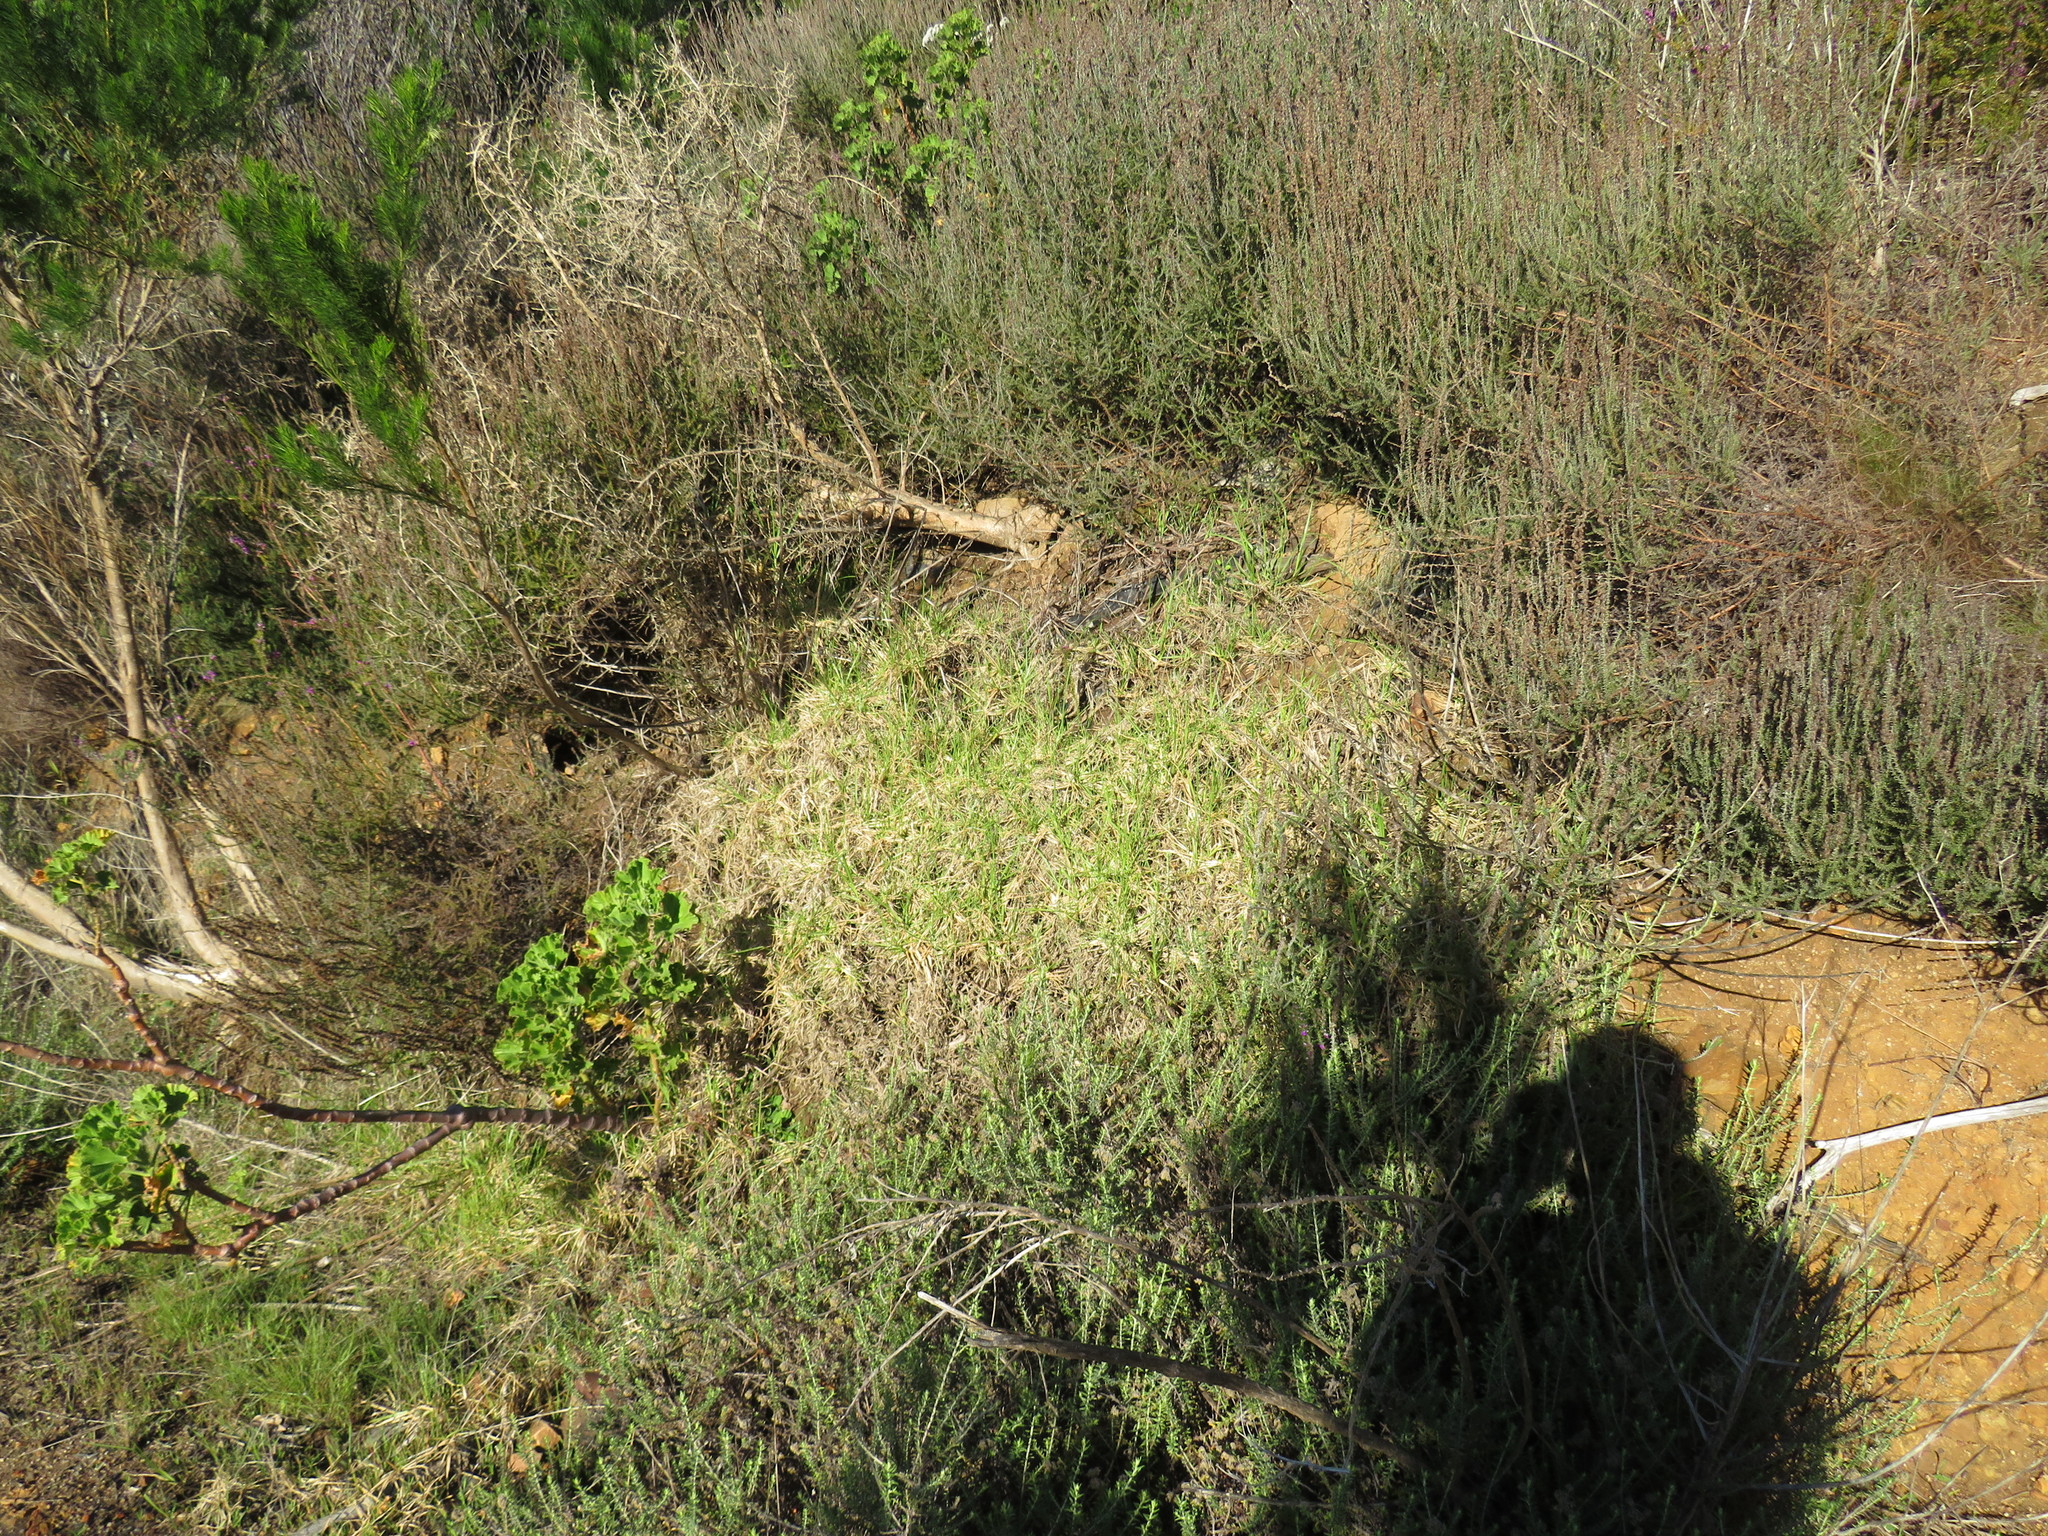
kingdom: Plantae
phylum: Tracheophyta
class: Liliopsida
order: Poales
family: Poaceae
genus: Cenchrus
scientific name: Cenchrus clandestinus
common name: Kikuyugrass
